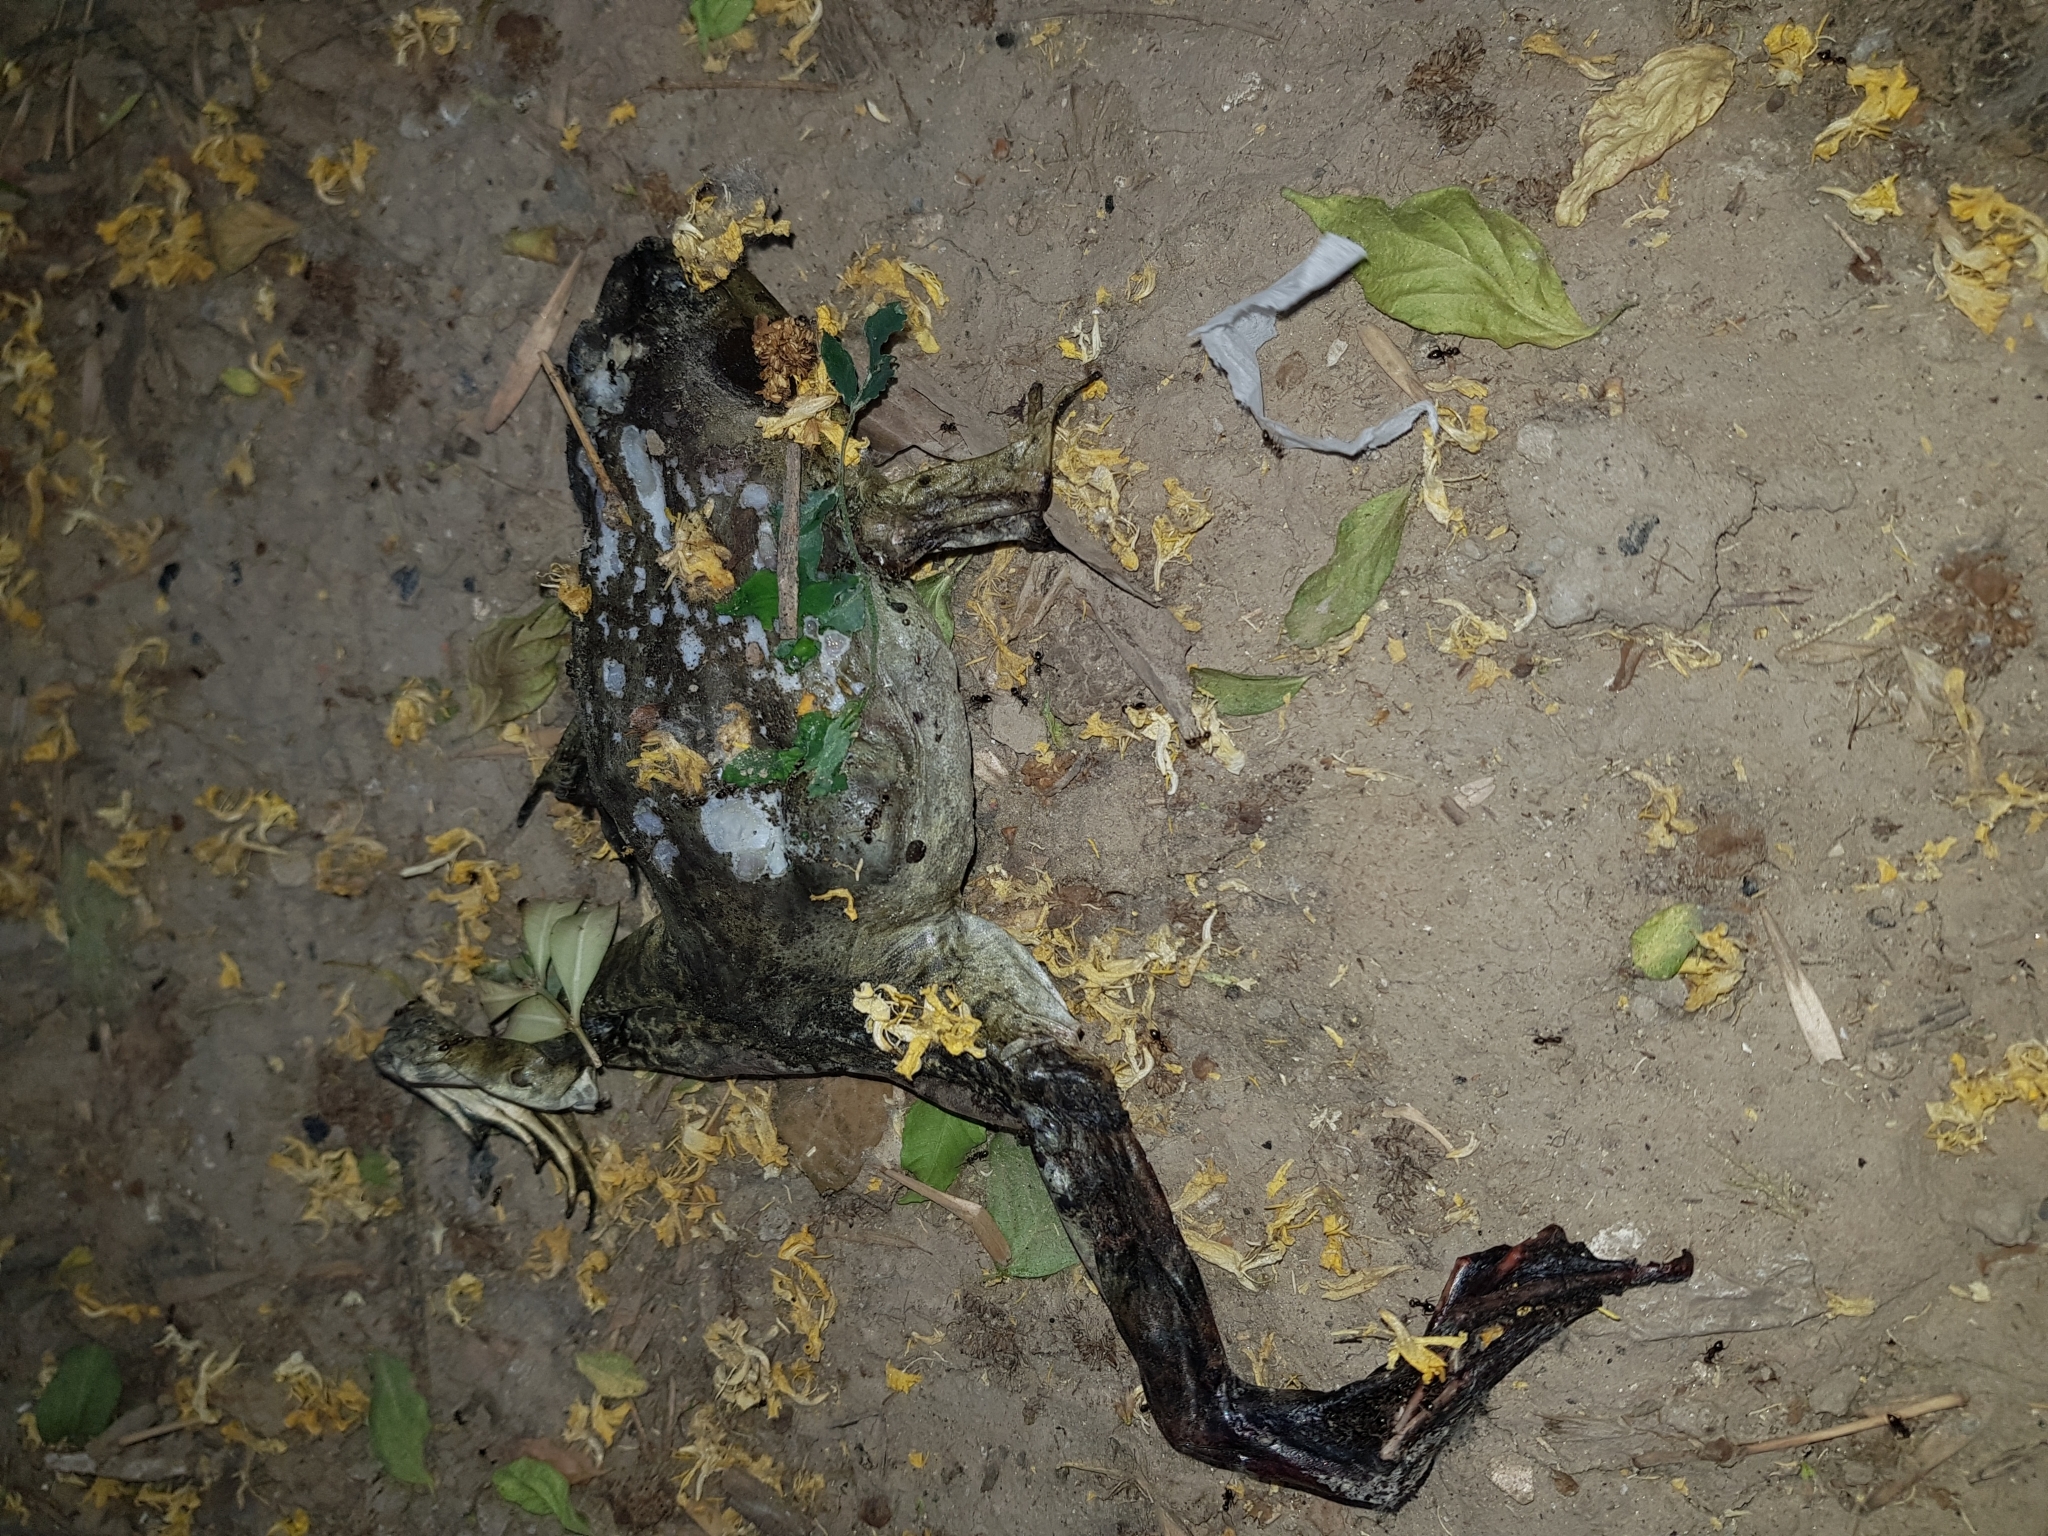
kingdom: Animalia
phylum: Chordata
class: Amphibia
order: Anura
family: Ranidae
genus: Lithobates
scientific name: Lithobates catesbeianus
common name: American bullfrog
